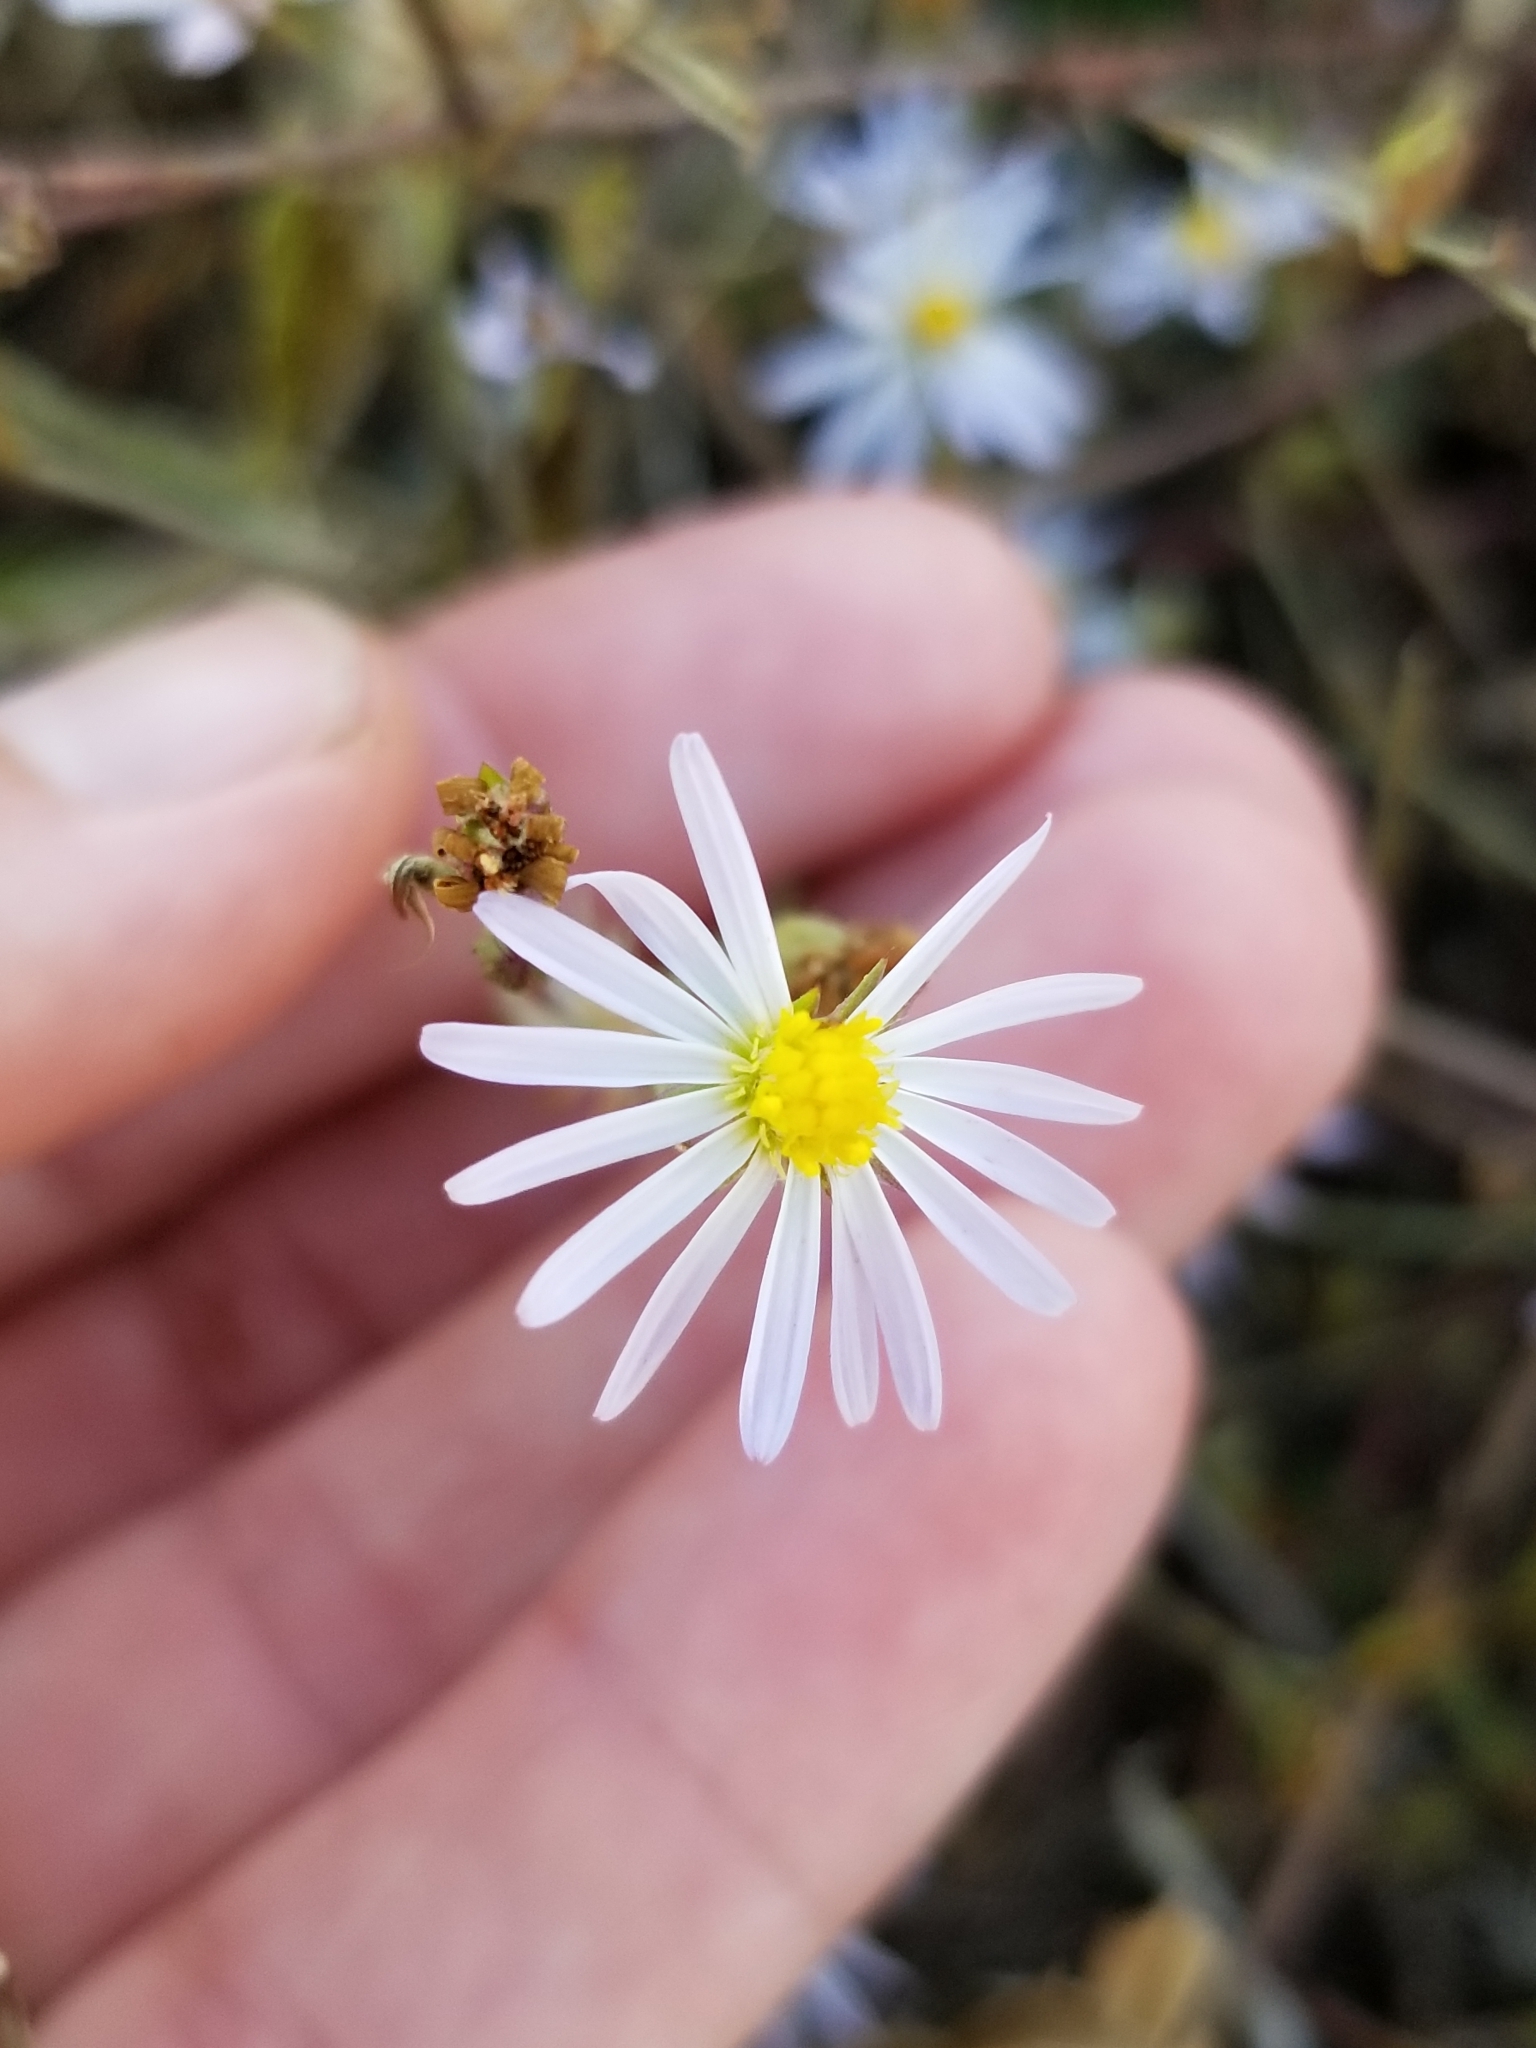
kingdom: Plantae
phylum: Tracheophyta
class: Magnoliopsida
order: Asterales
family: Asteraceae
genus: Symphyotrichum
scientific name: Symphyotrichum divaricatum
